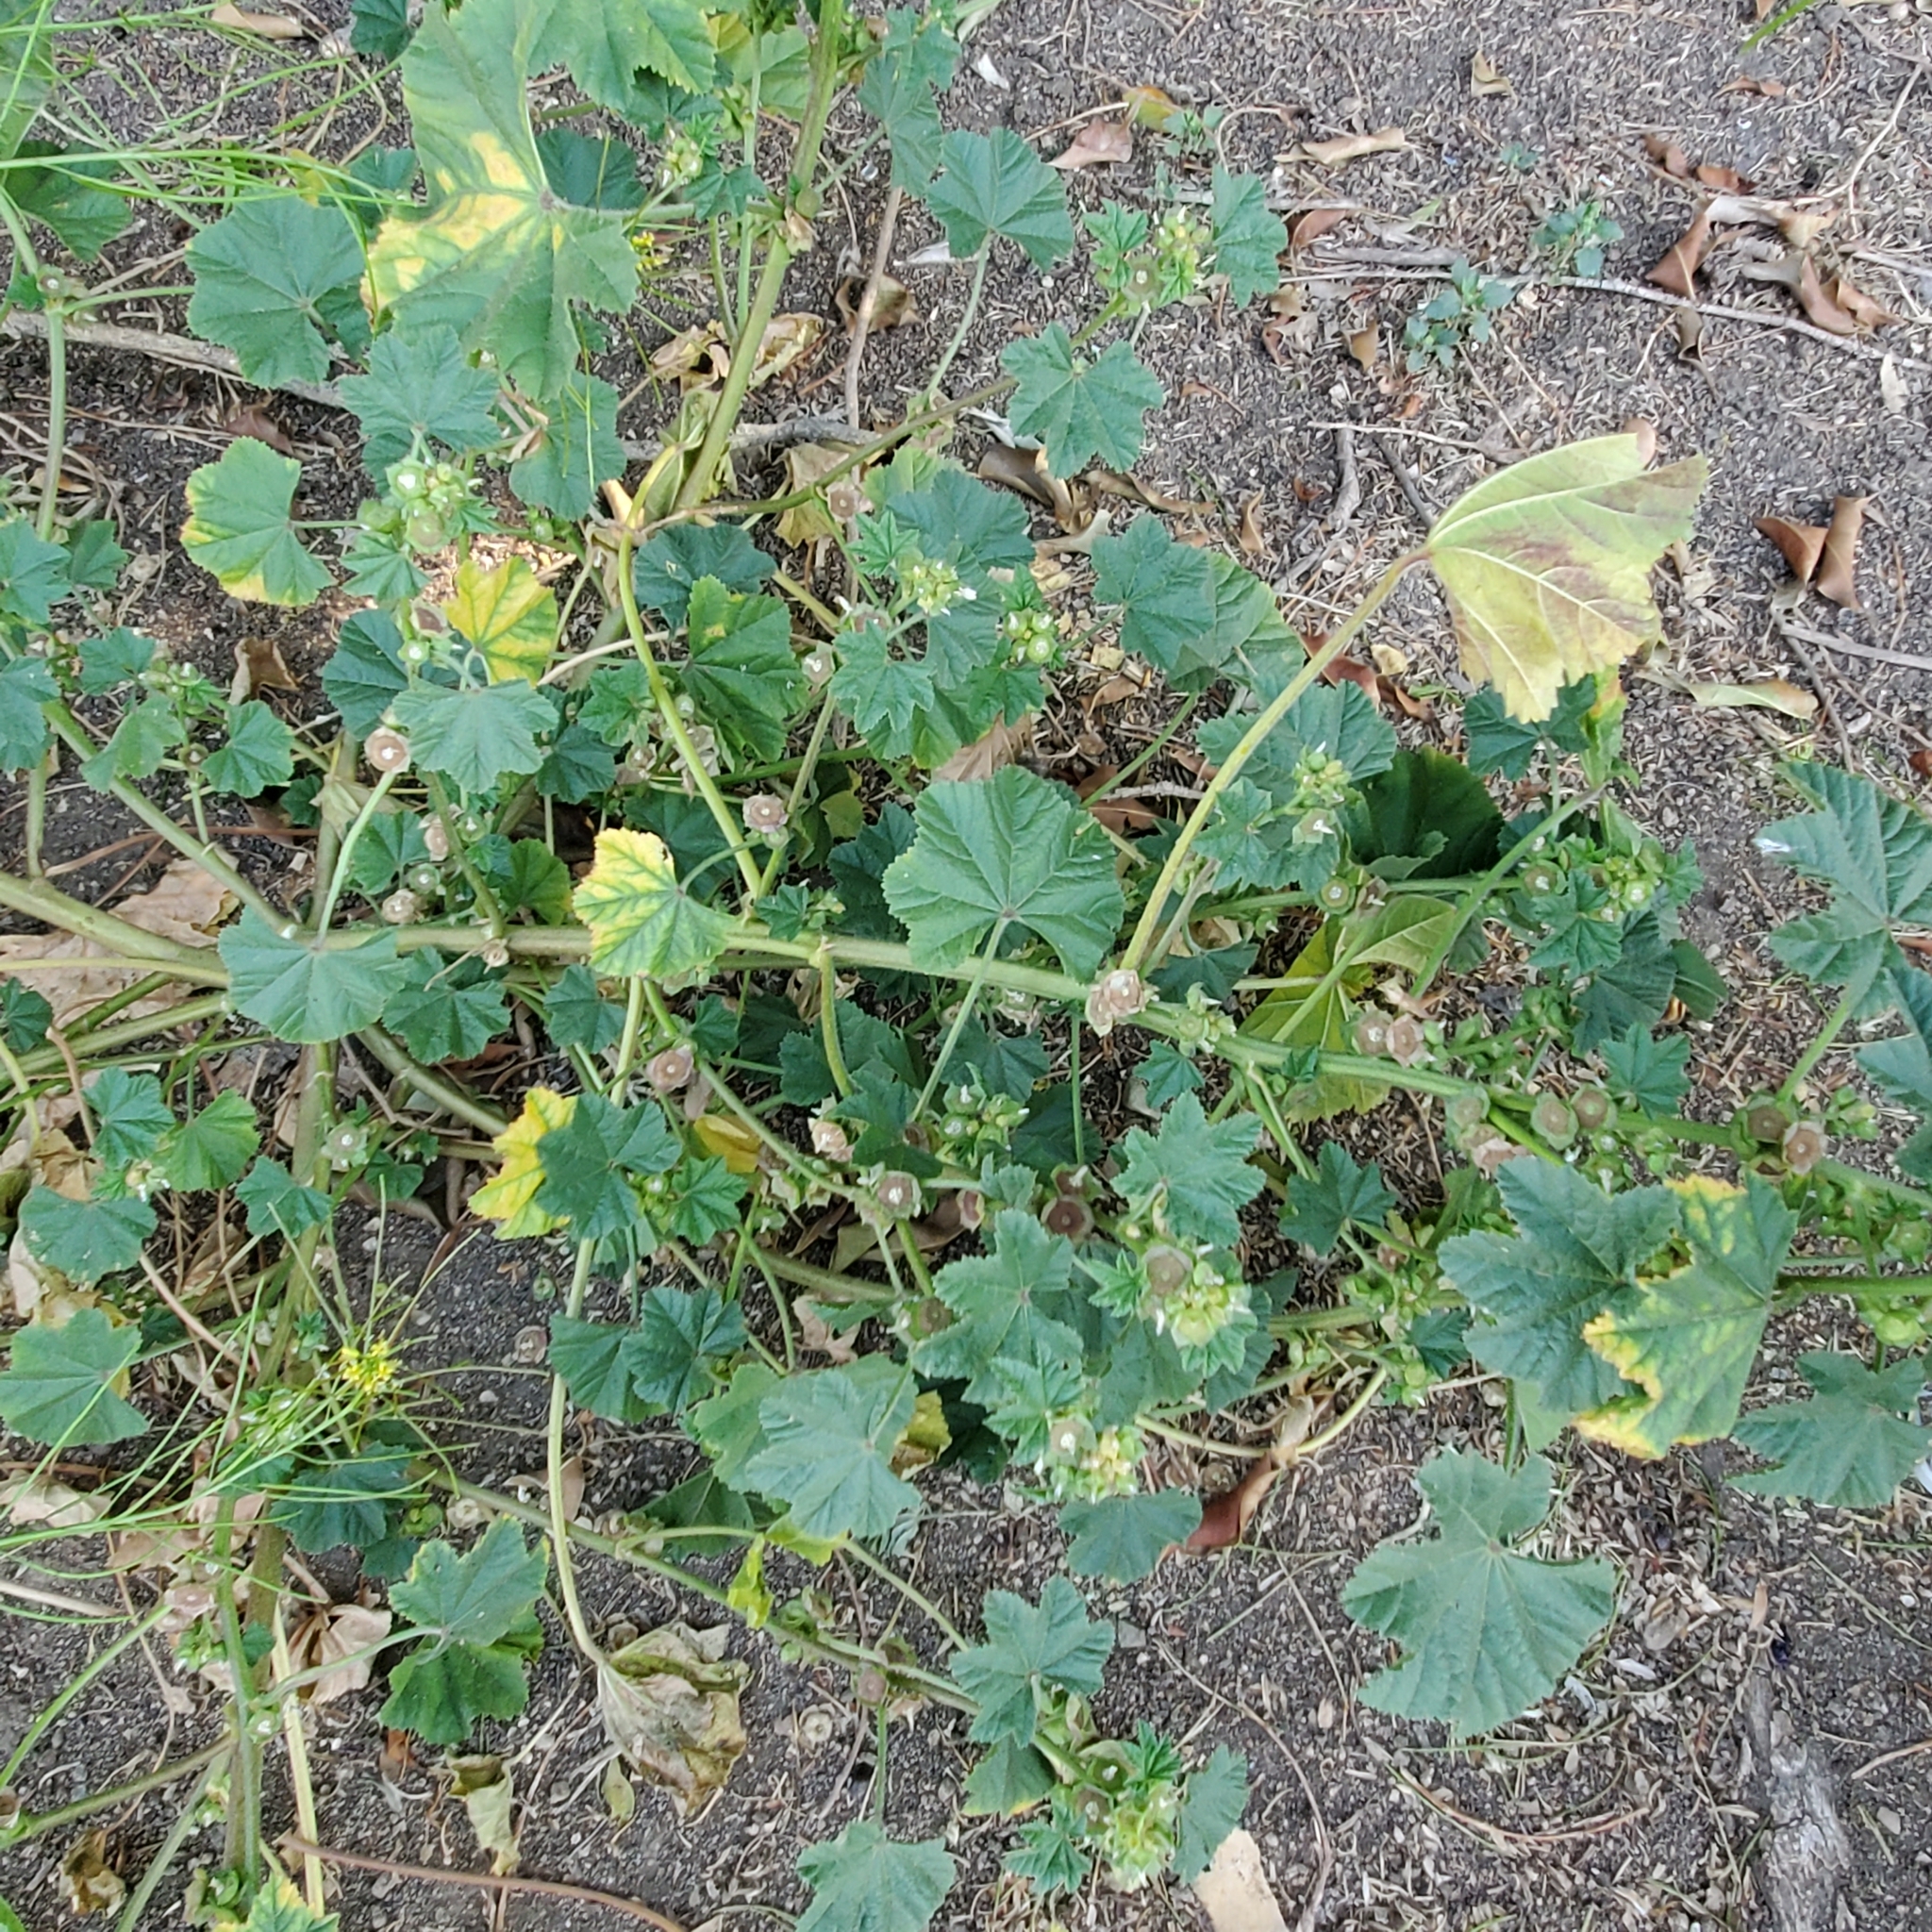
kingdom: Plantae
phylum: Tracheophyta
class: Magnoliopsida
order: Malvales
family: Malvaceae
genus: Malva
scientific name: Malva parviflora
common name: Least mallow
